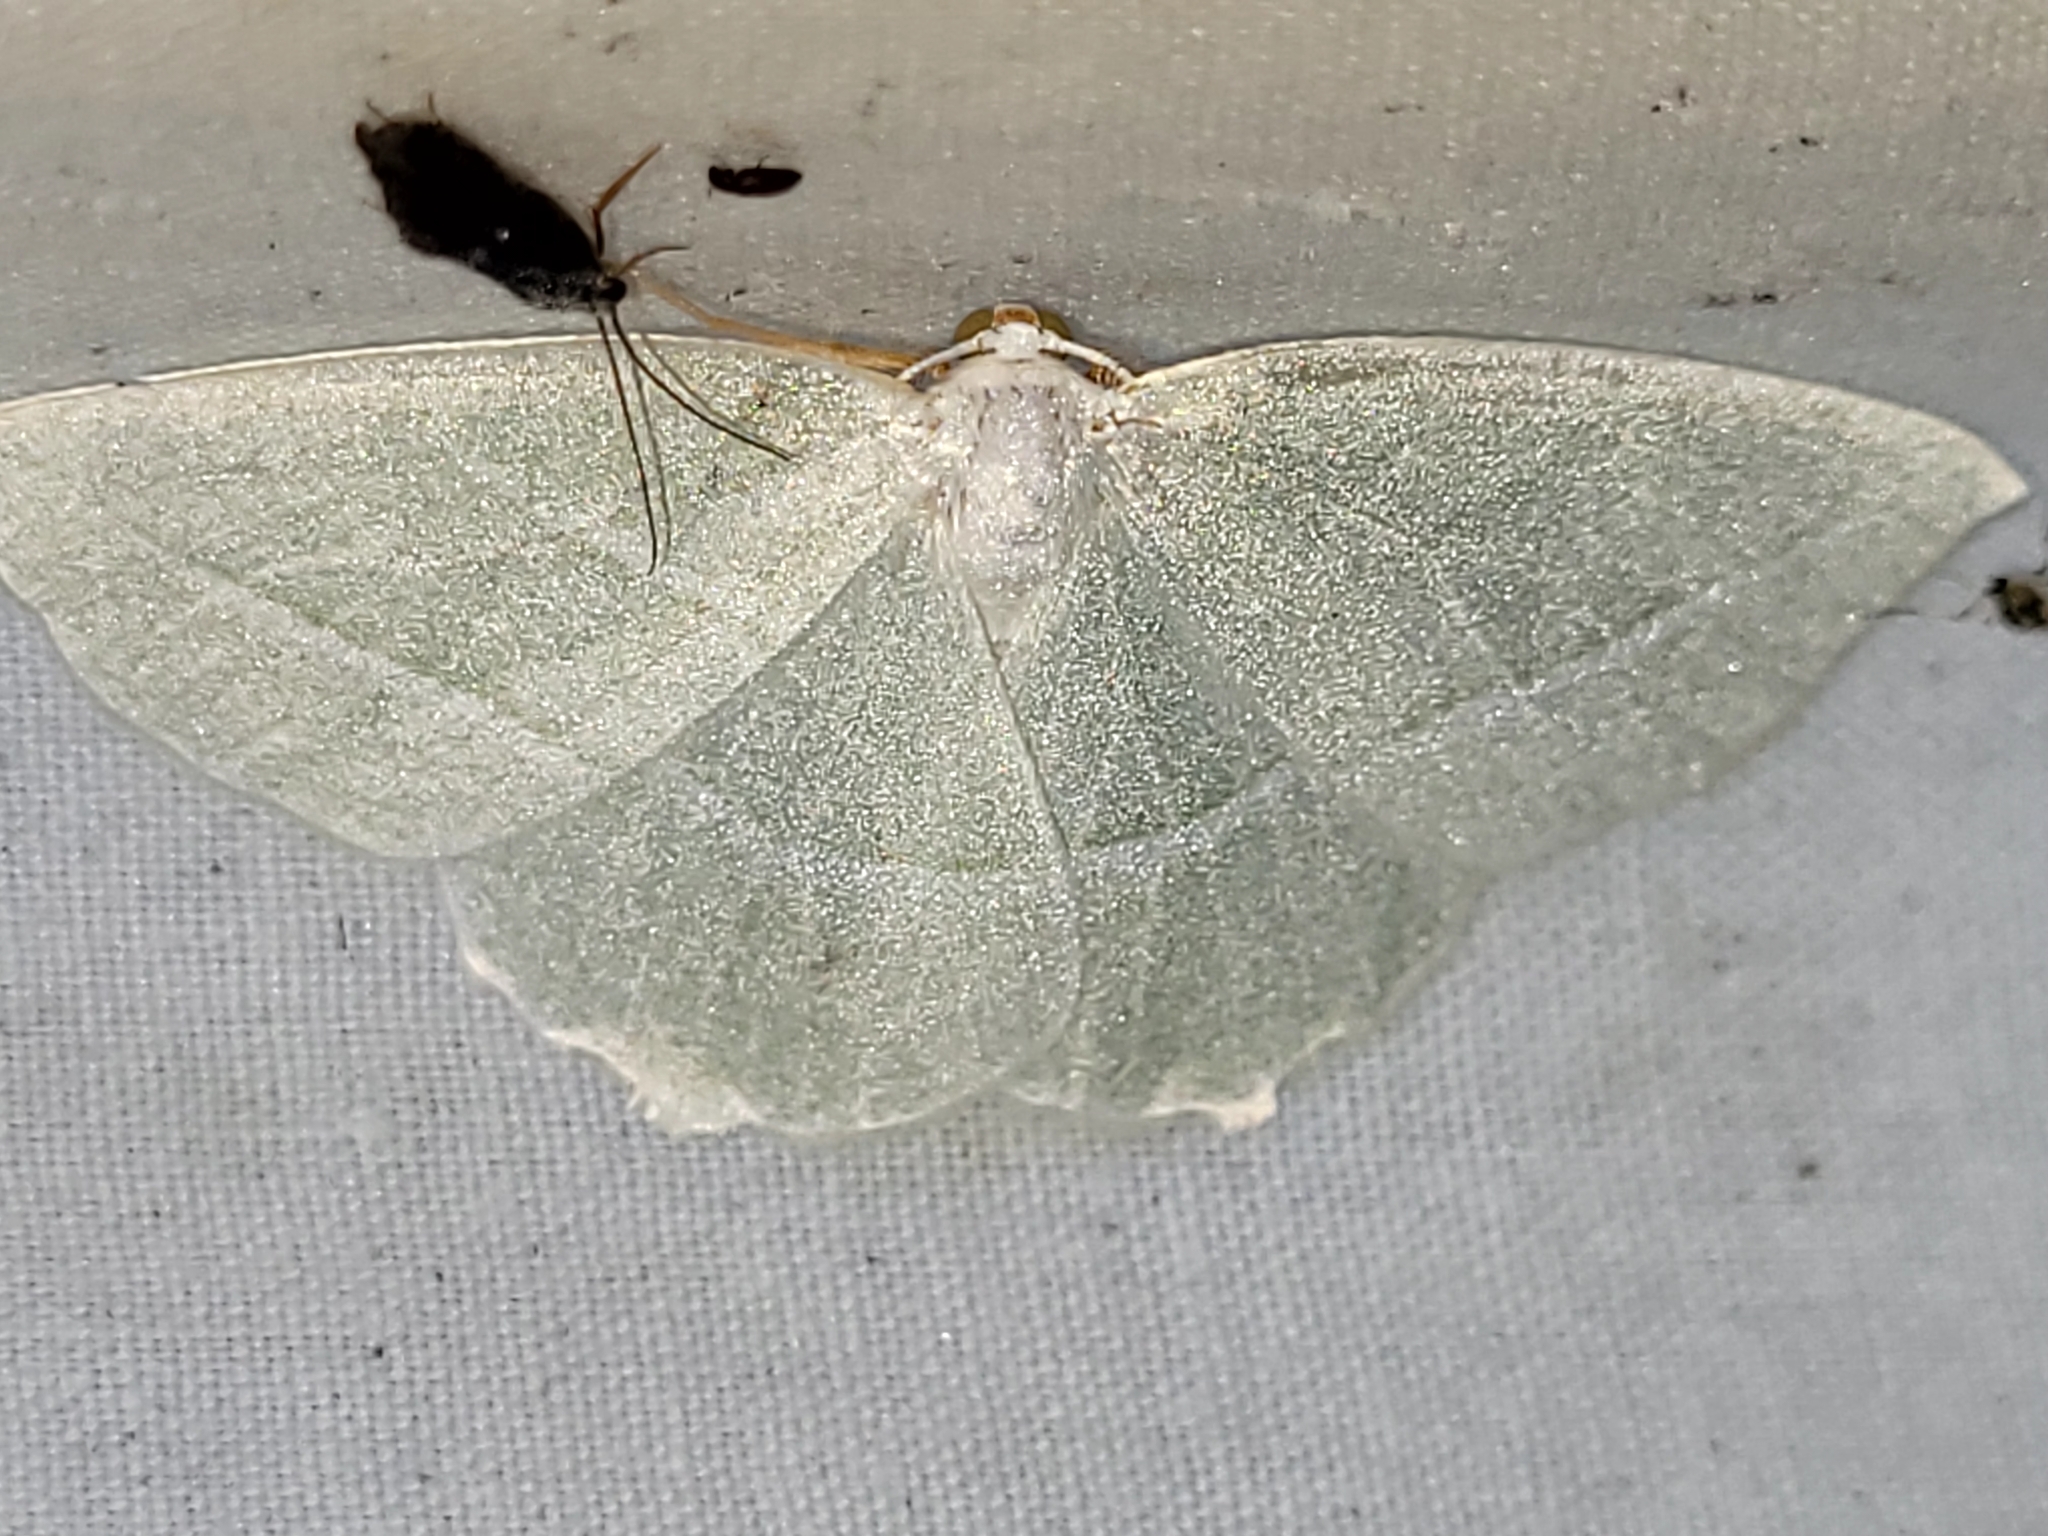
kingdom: Animalia
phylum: Arthropoda
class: Insecta
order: Lepidoptera
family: Geometridae
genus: Campaea
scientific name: Campaea perlata
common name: Fringed looper
